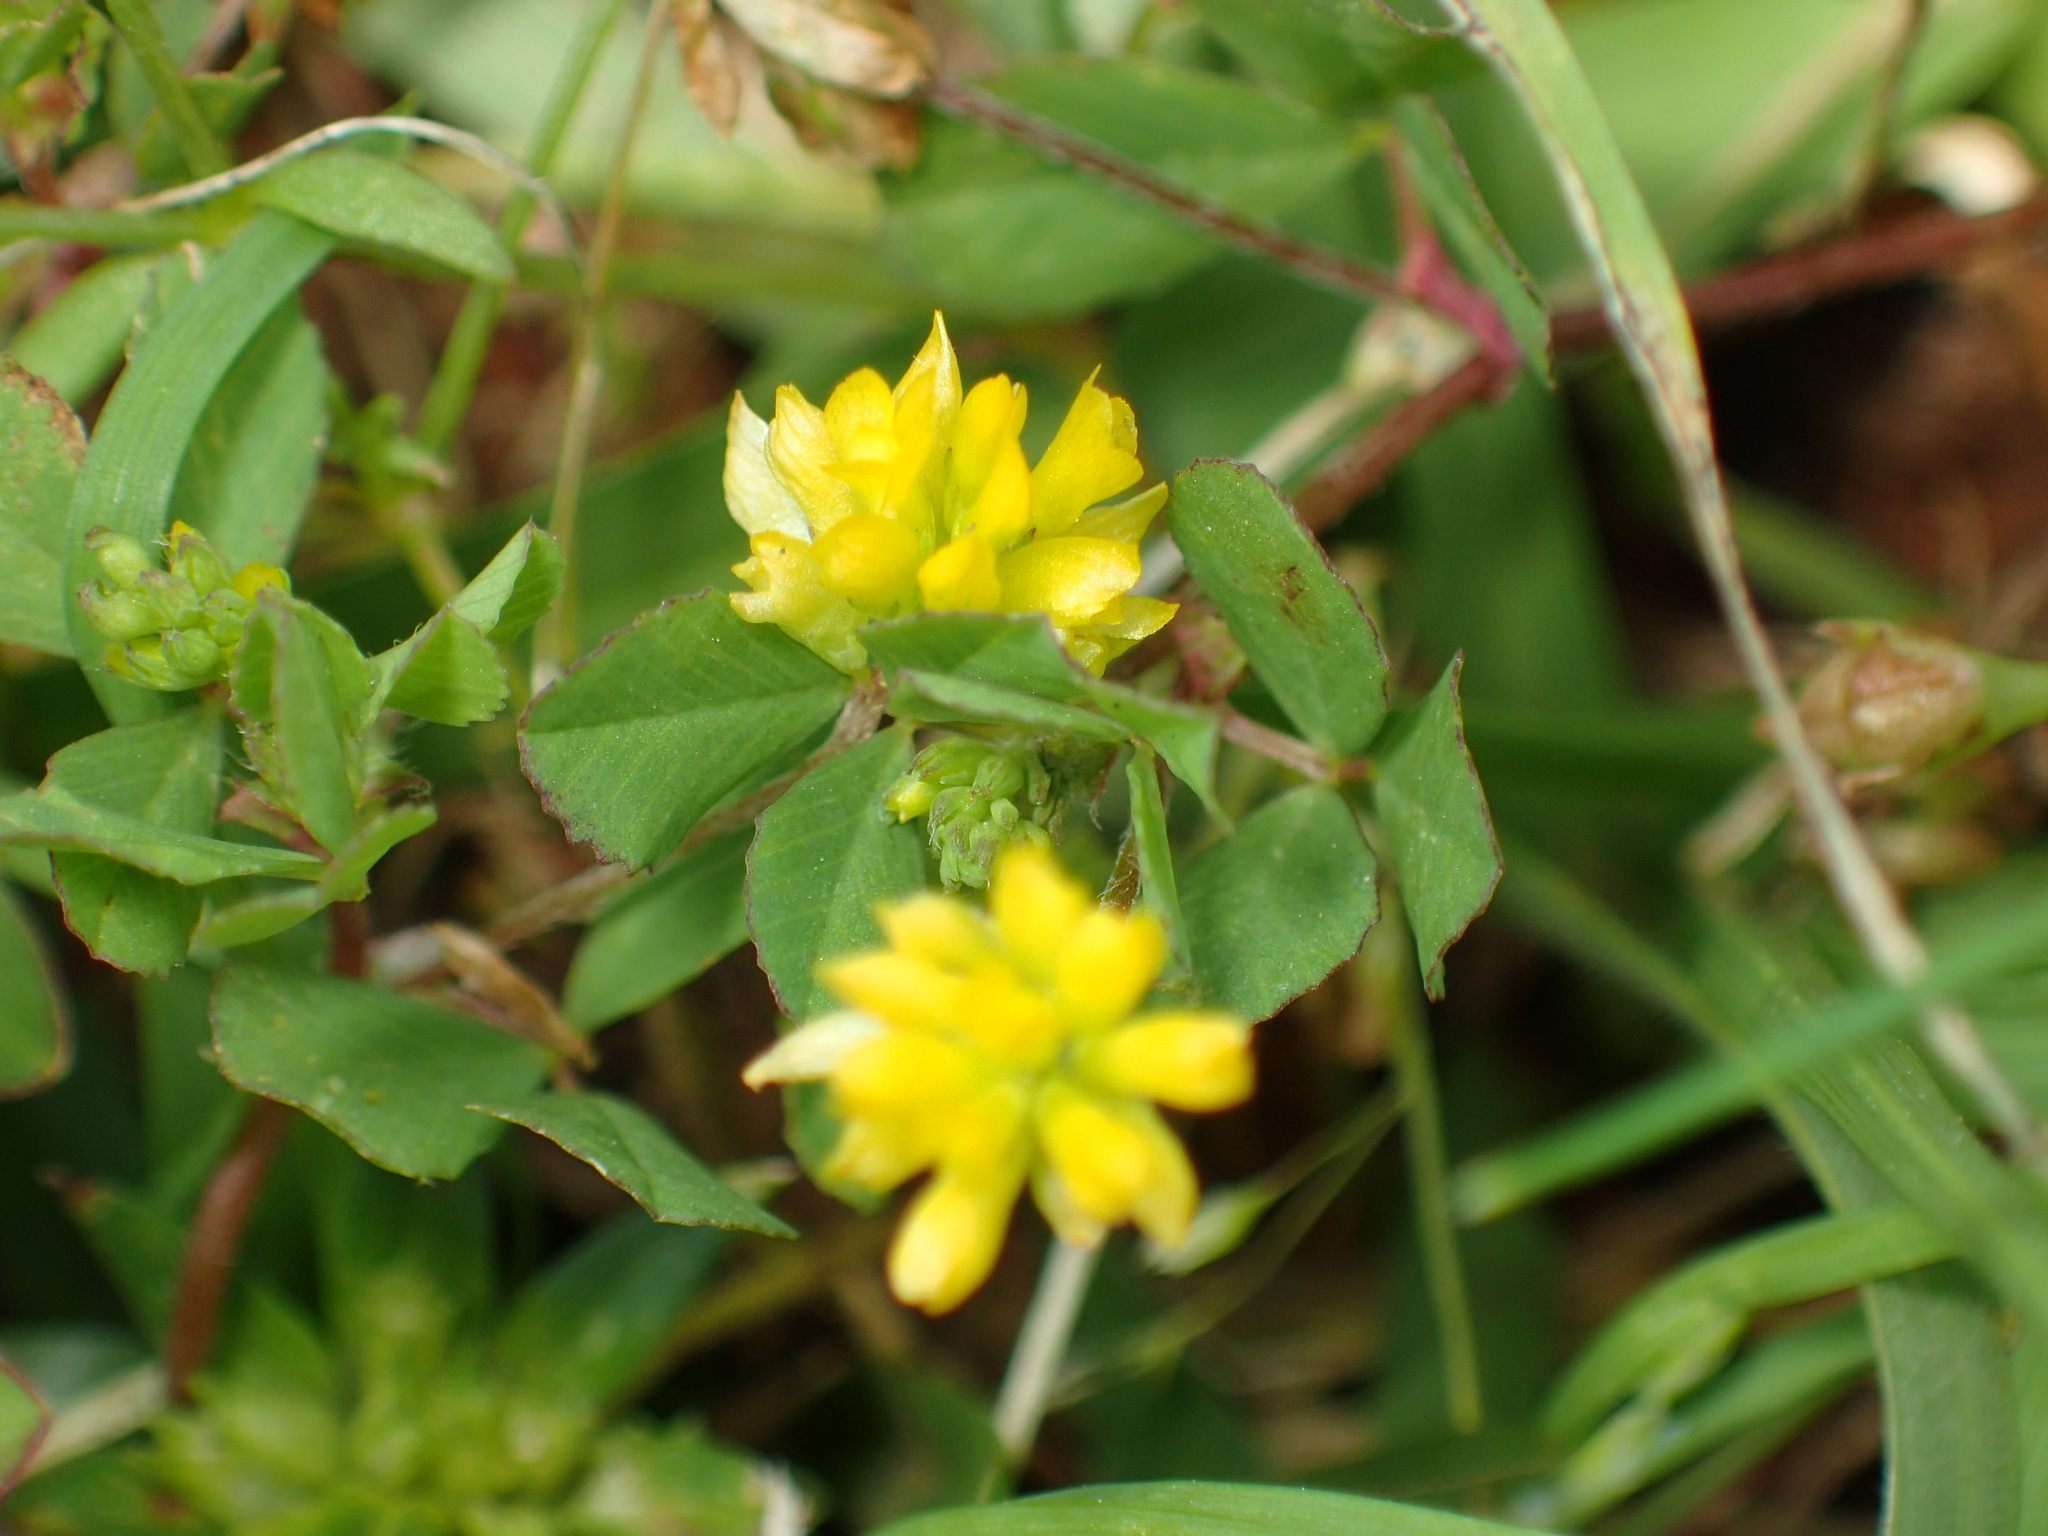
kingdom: Plantae
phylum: Tracheophyta
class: Magnoliopsida
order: Fabales
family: Fabaceae
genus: Trifolium
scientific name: Trifolium campestre
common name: Field clover
